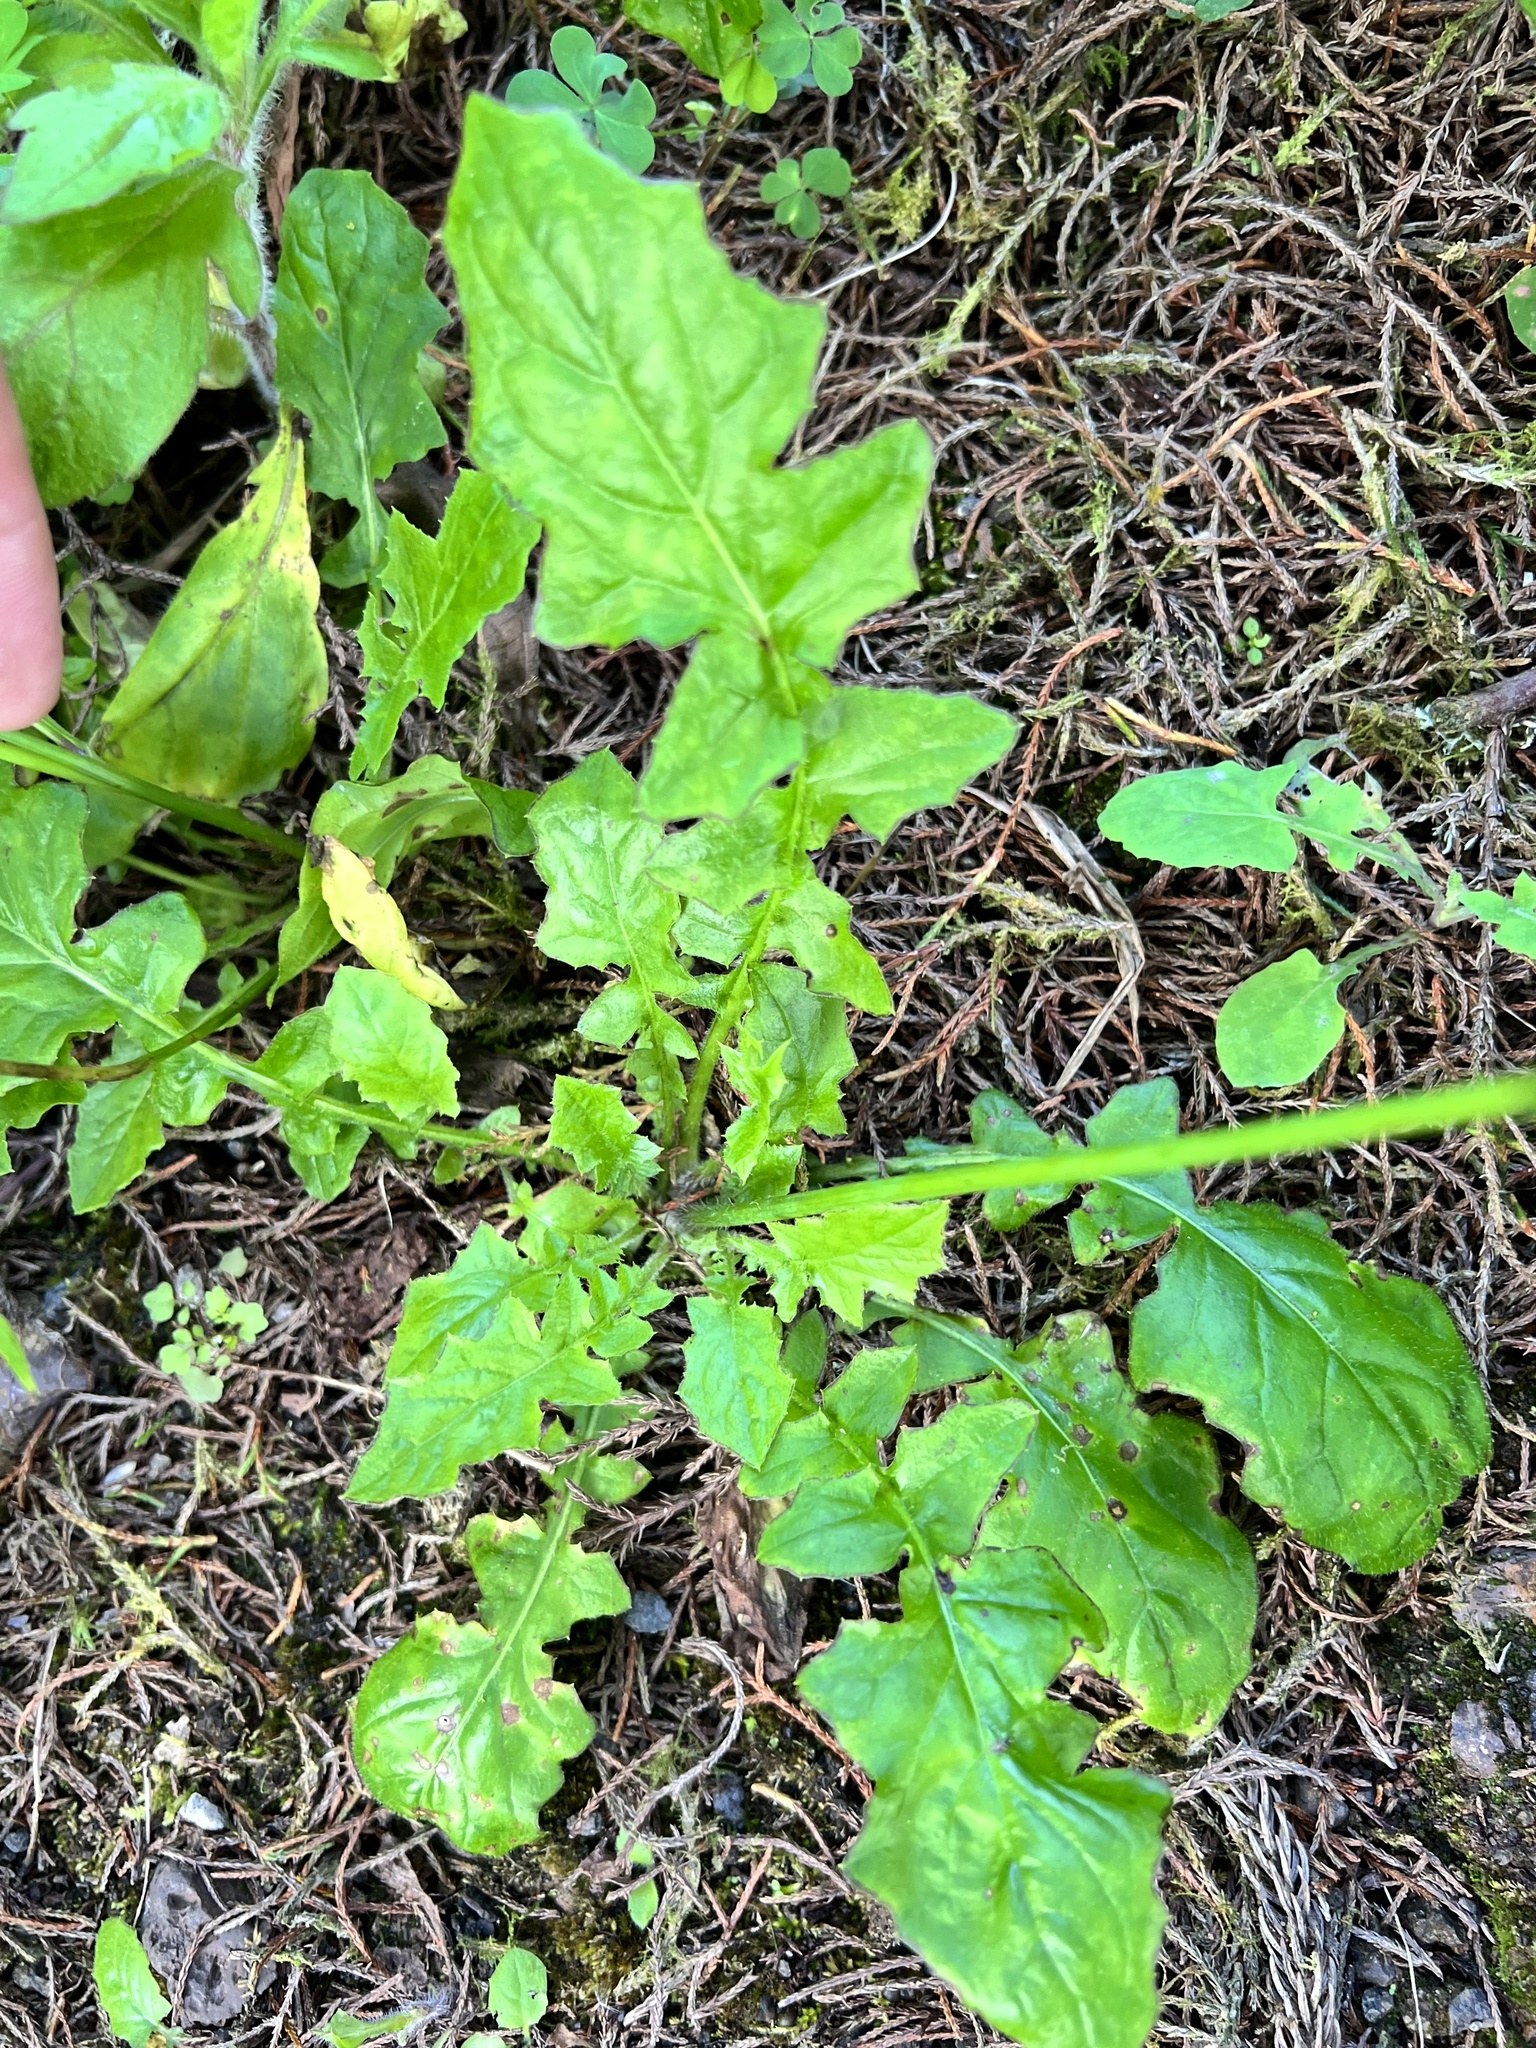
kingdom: Plantae
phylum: Tracheophyta
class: Magnoliopsida
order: Asterales
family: Asteraceae
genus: Youngia
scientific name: Youngia japonica
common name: Oriental false hawksbeard
